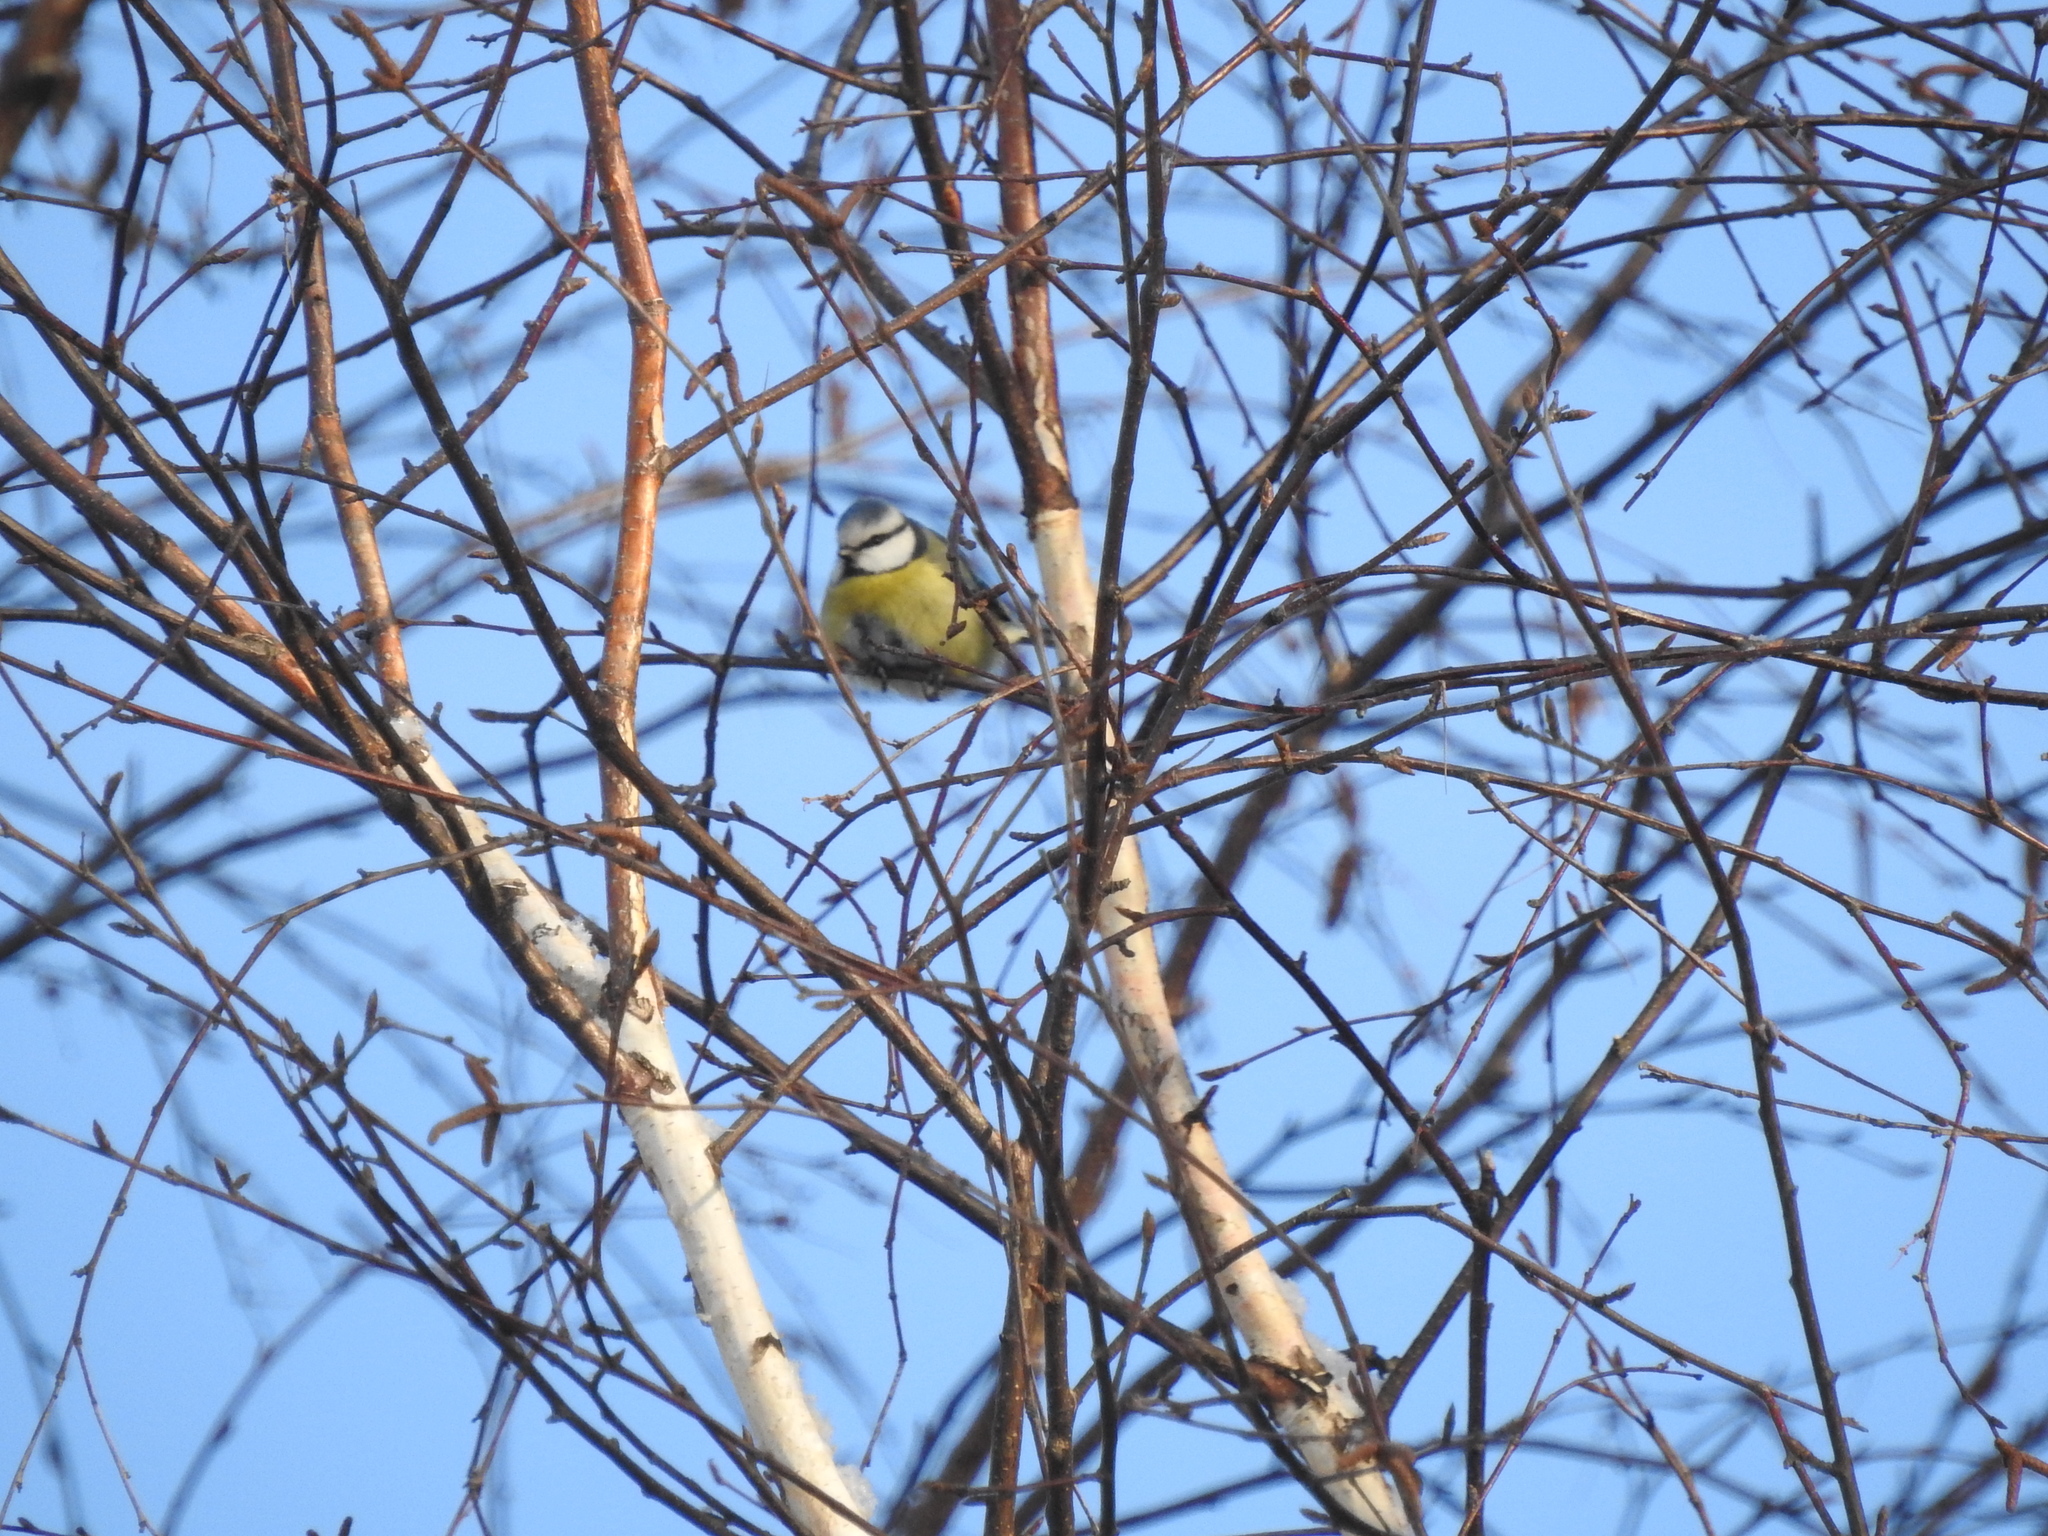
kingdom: Animalia
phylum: Chordata
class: Aves
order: Passeriformes
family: Paridae
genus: Cyanistes
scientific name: Cyanistes caeruleus
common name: Eurasian blue tit
